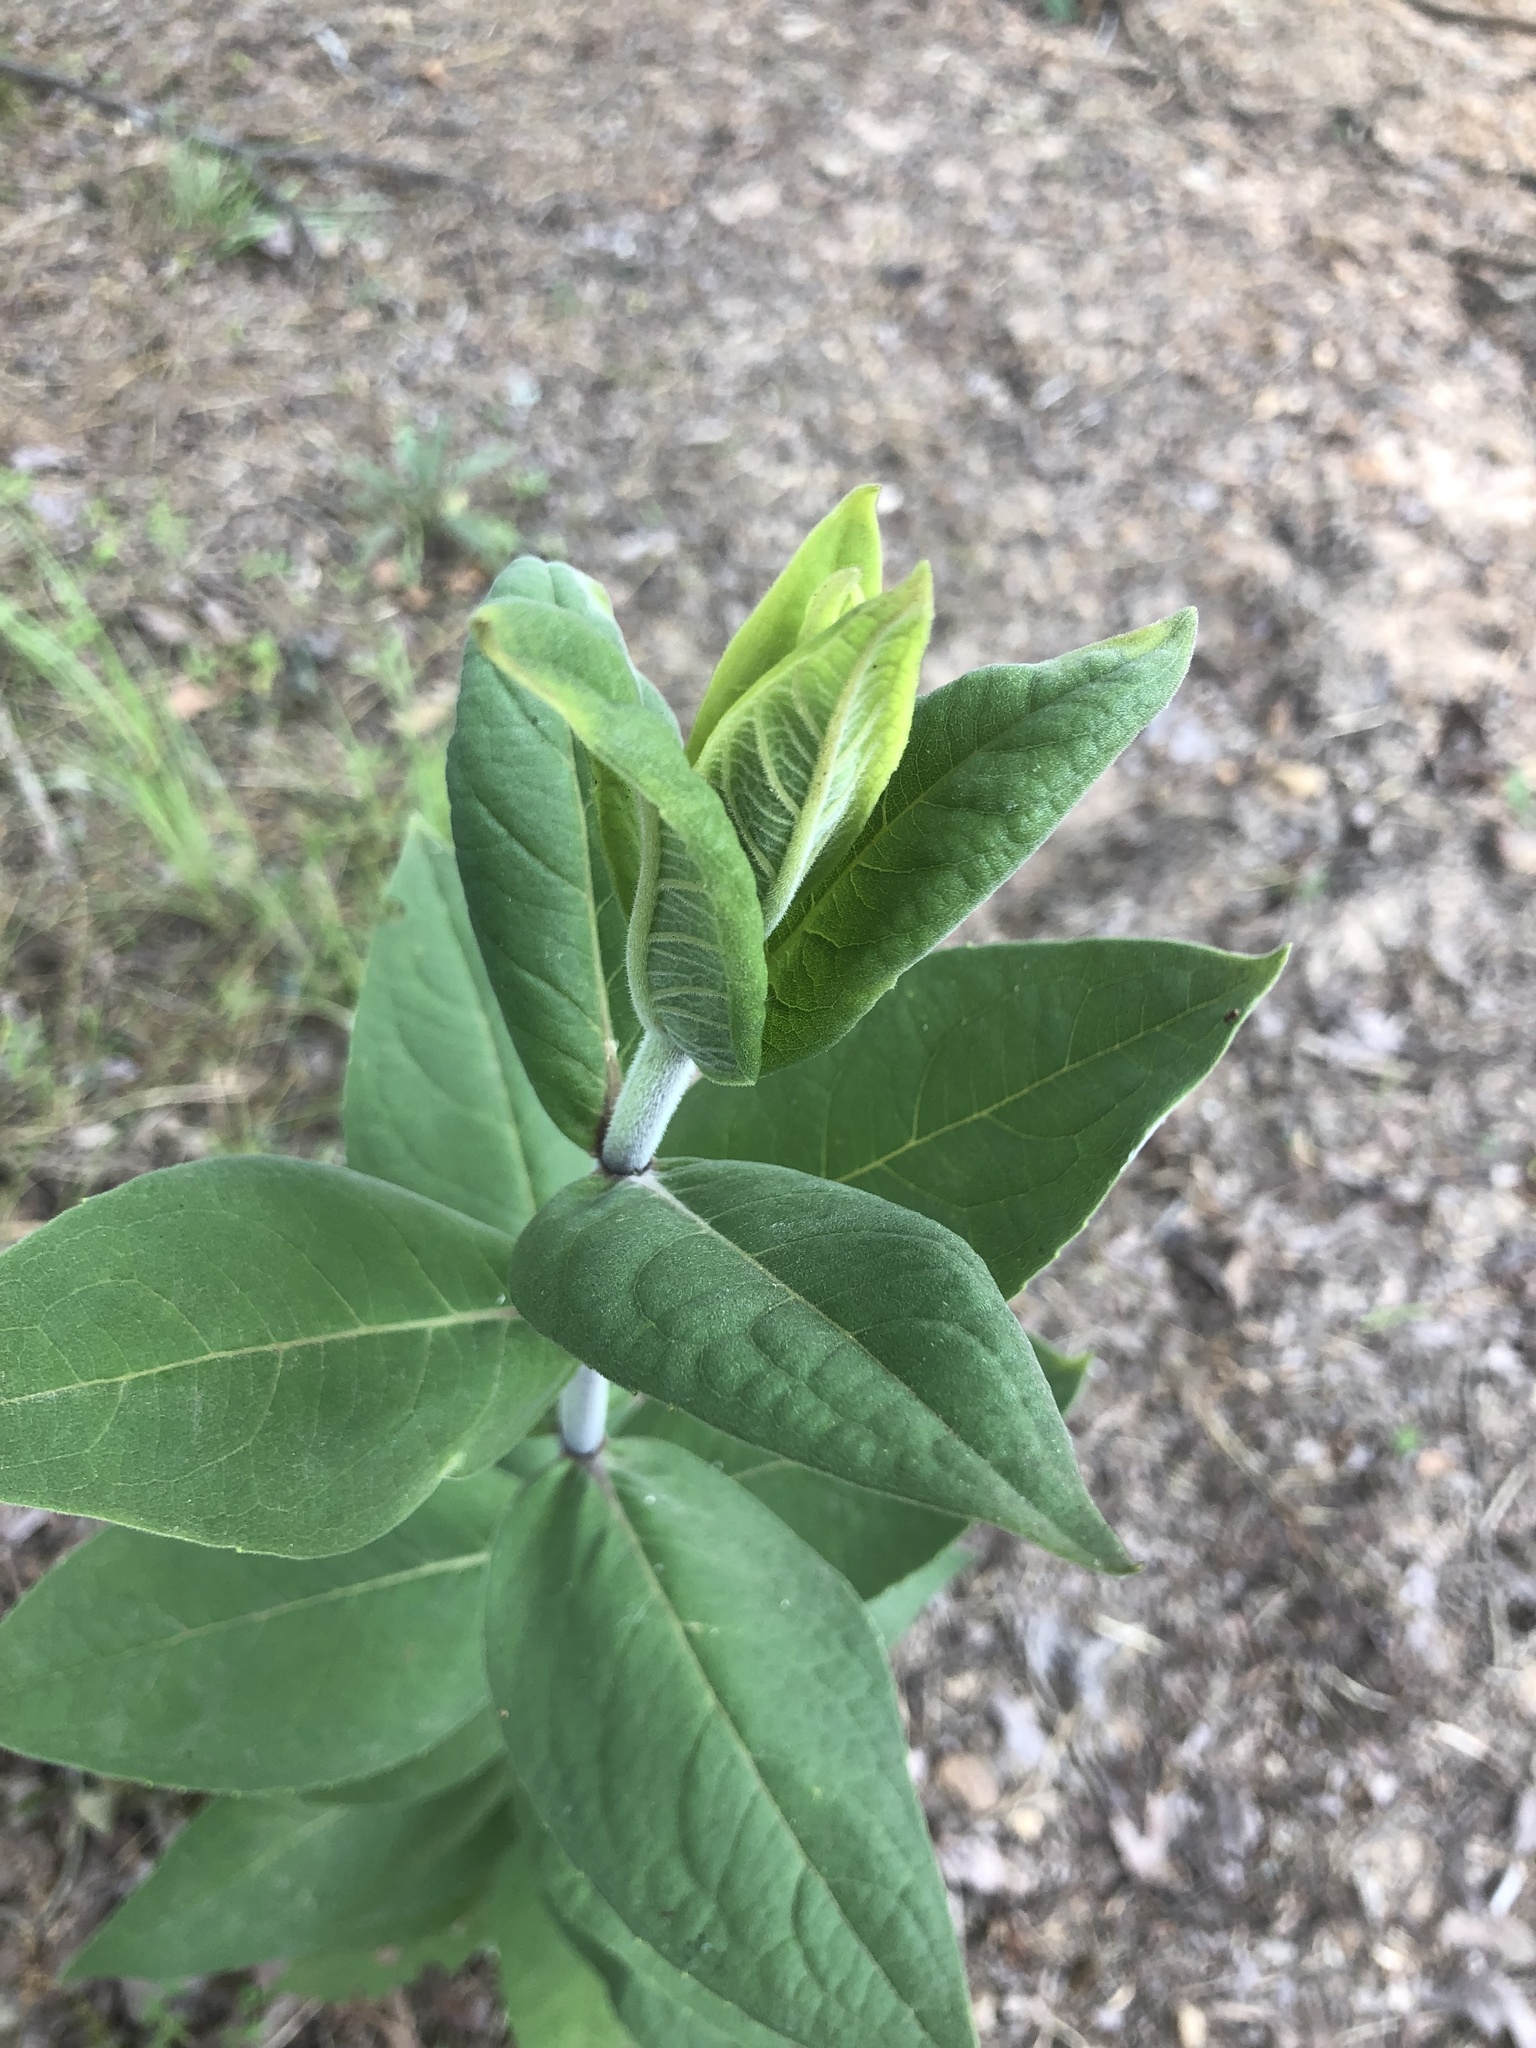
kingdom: Plantae
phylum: Tracheophyta
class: Magnoliopsida
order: Asterales
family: Asteraceae
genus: Silphium
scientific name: Silphium integrifolium
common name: Whole-leaf rosinweed
